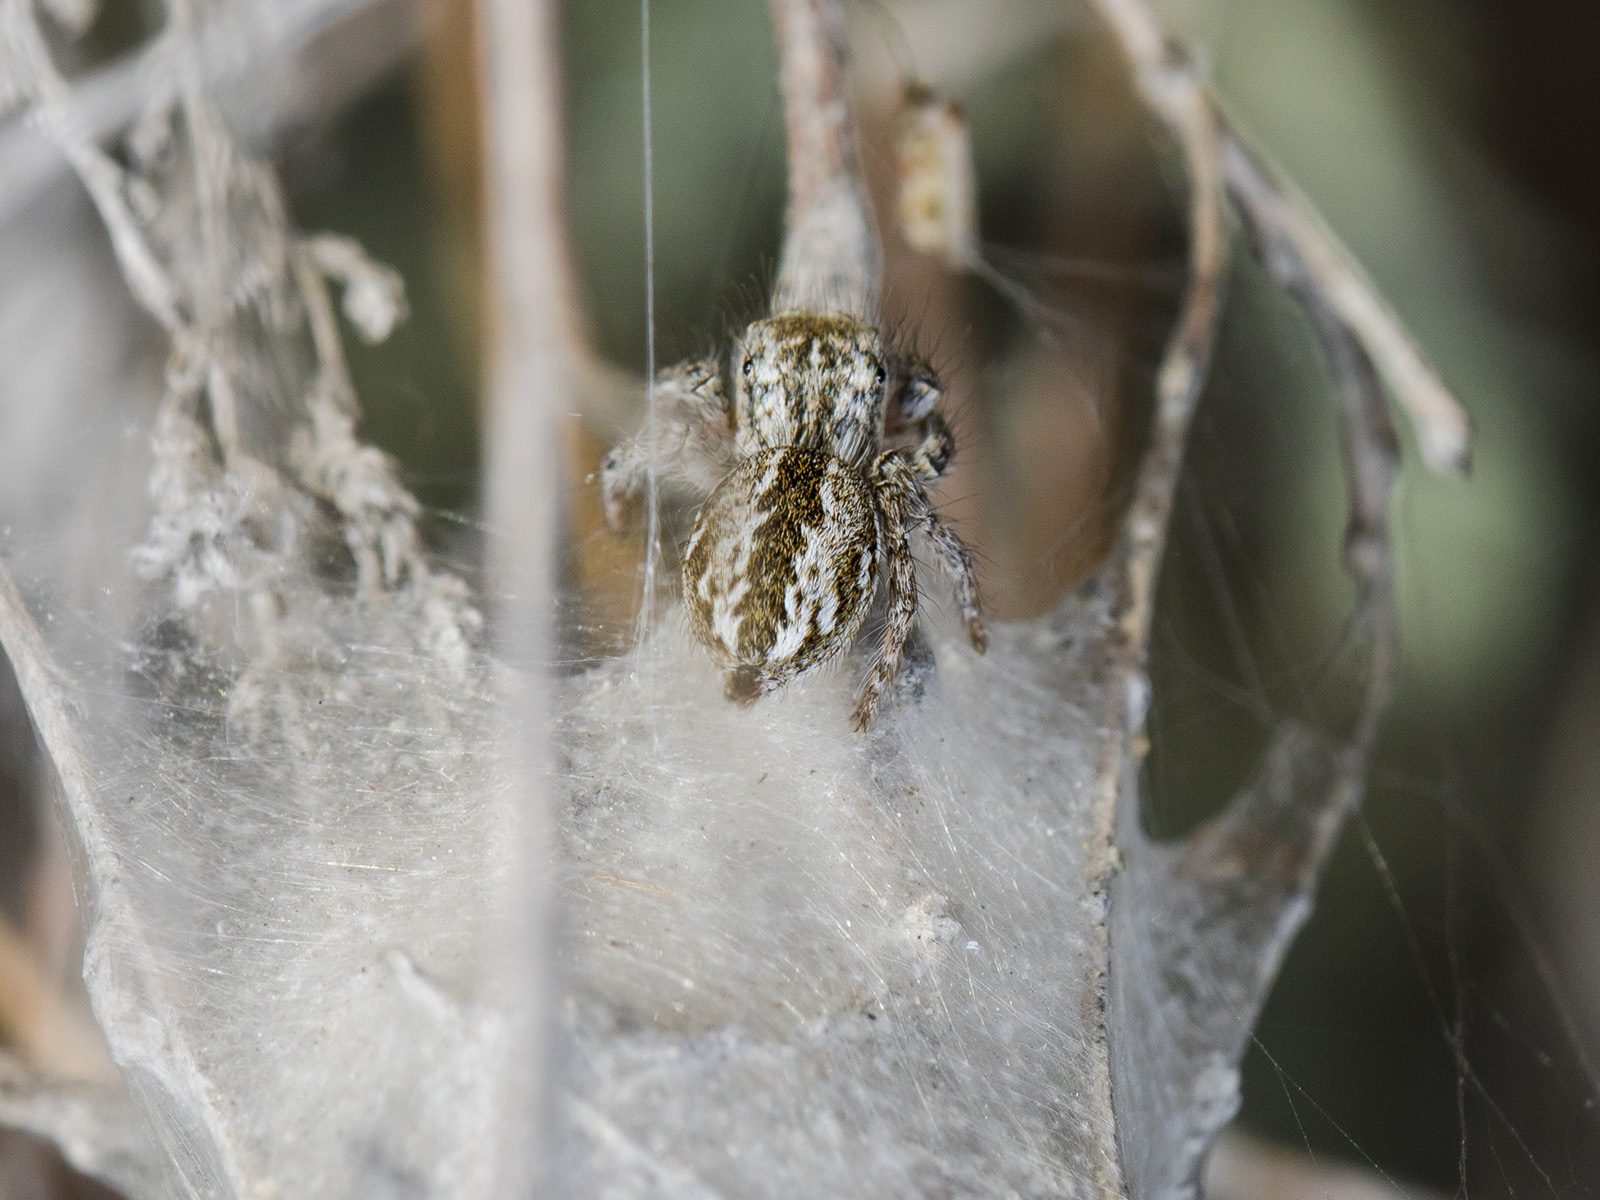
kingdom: Animalia
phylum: Arthropoda
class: Arachnida
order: Araneae
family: Salticidae
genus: Mogrus
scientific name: Mogrus larisae
